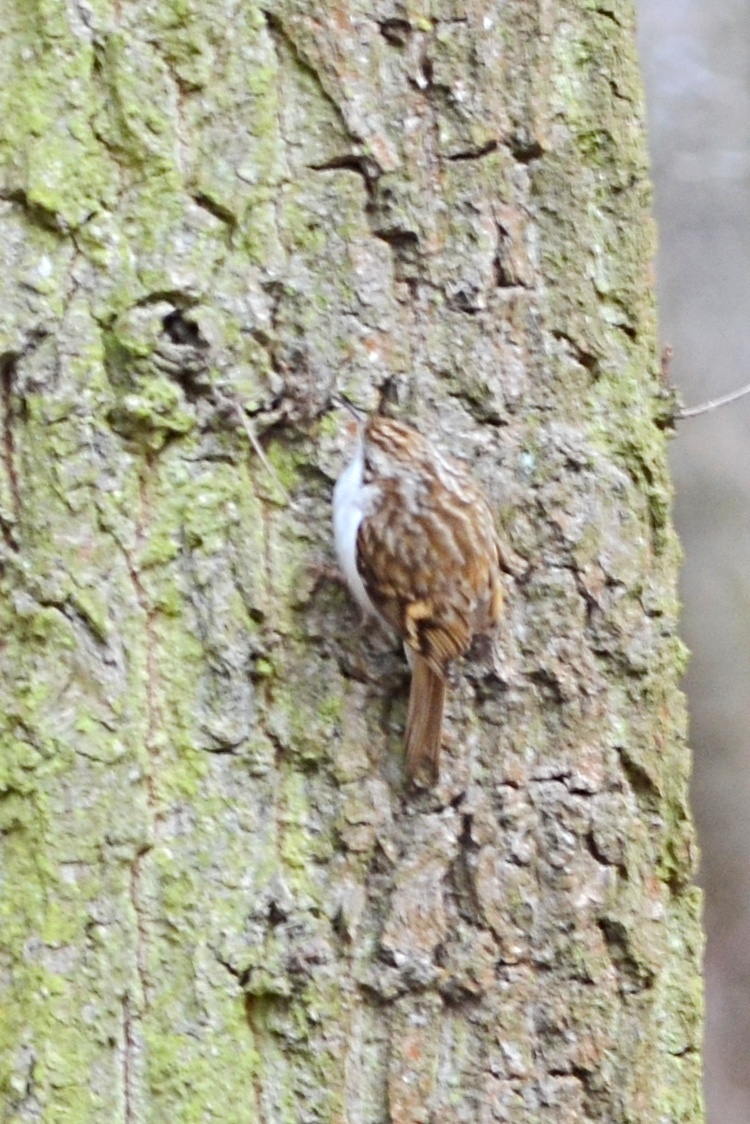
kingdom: Animalia
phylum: Chordata
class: Aves
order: Passeriformes
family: Certhiidae
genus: Certhia
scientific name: Certhia familiaris
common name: Eurasian treecreeper
